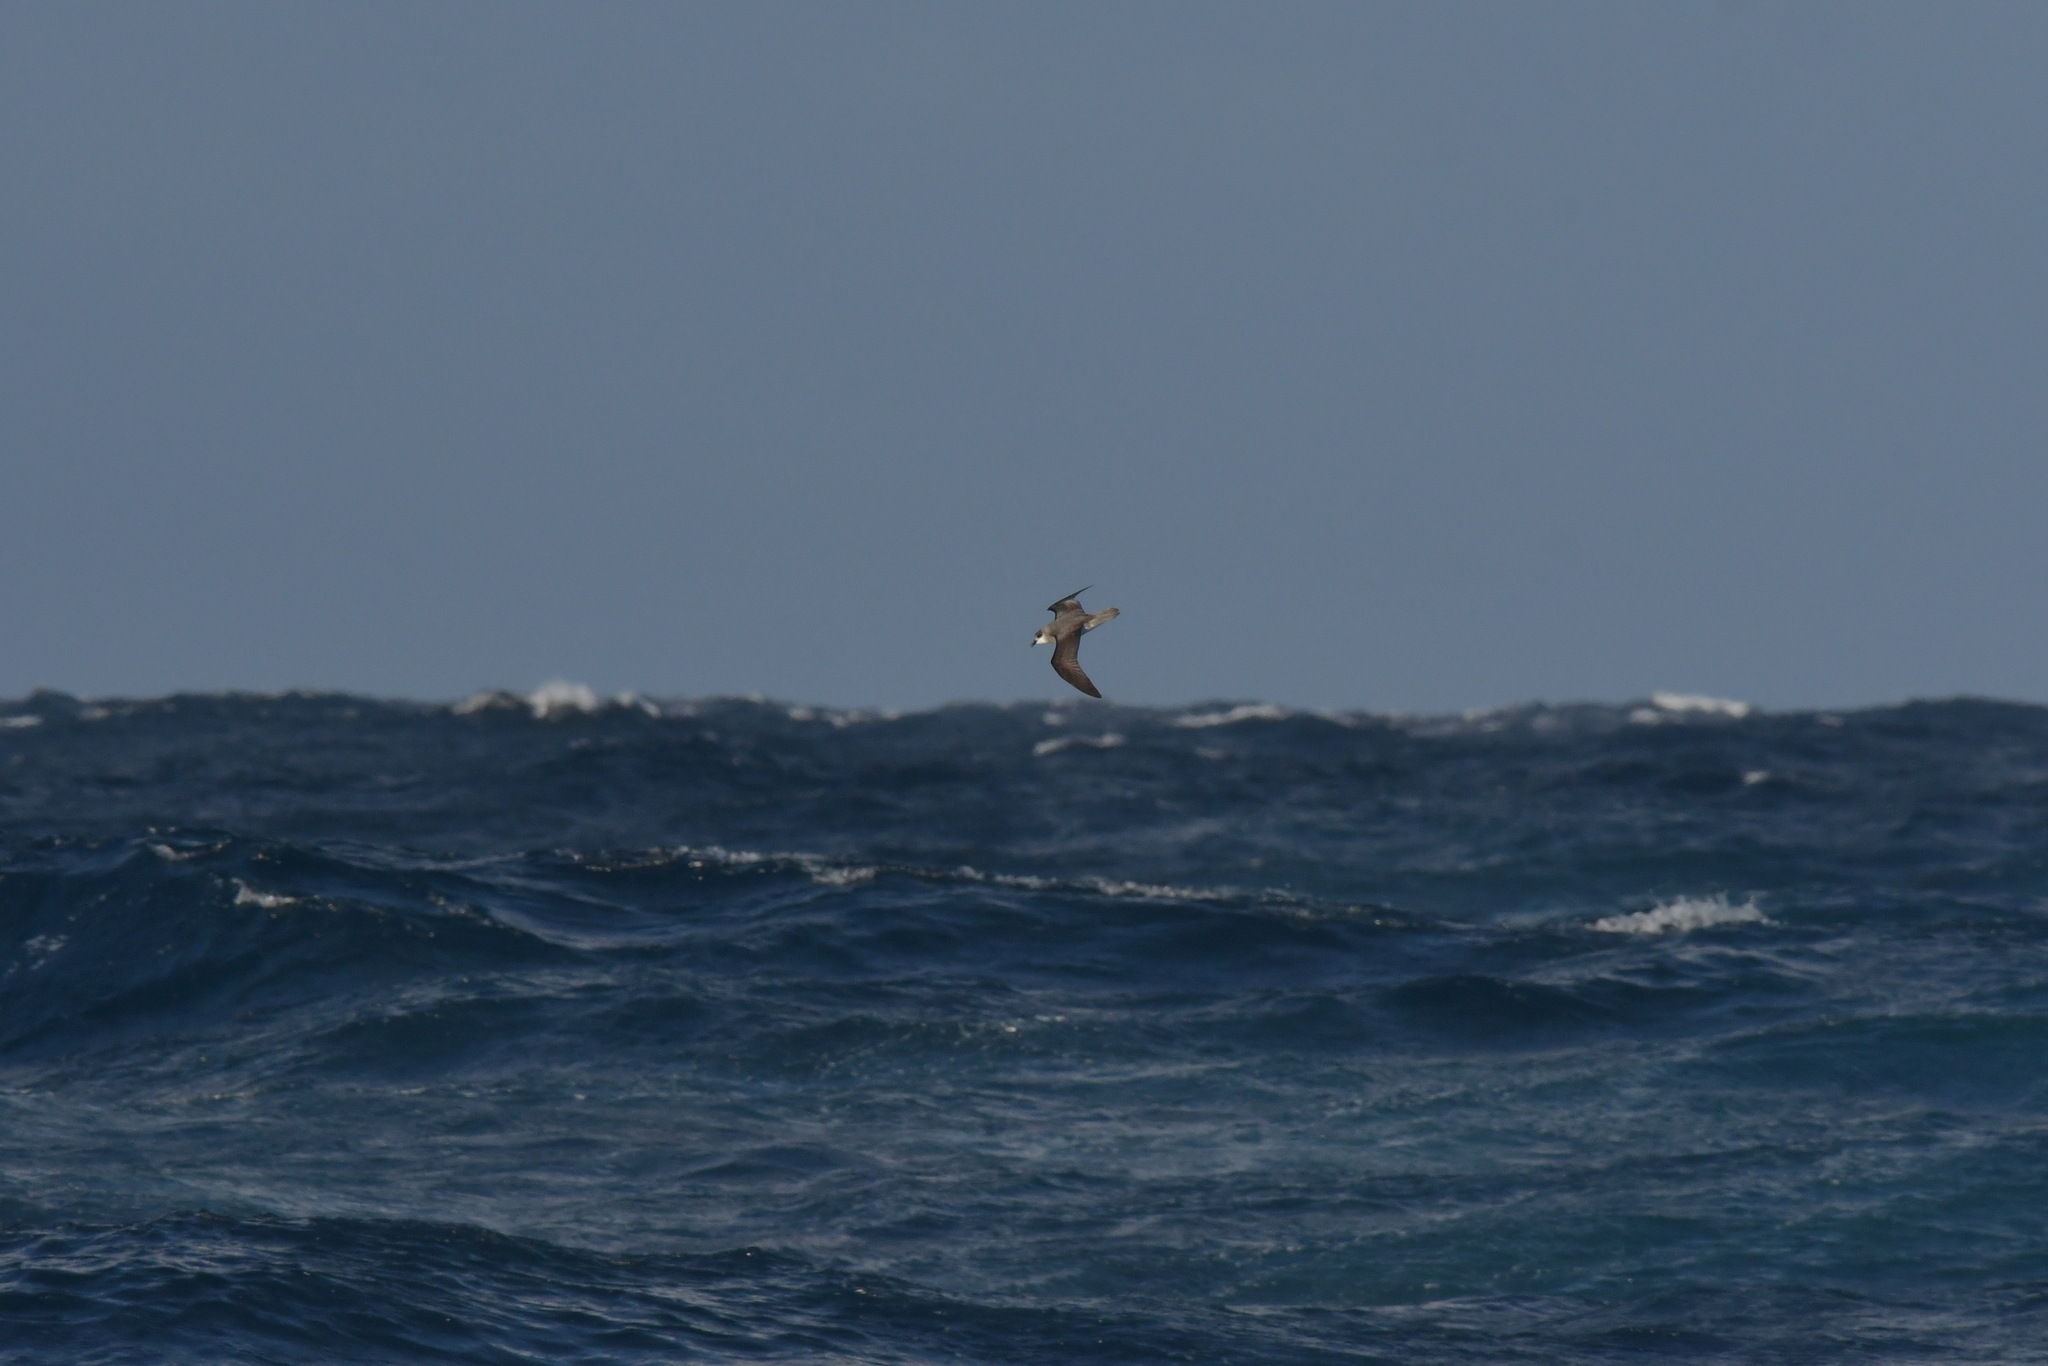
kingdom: Animalia
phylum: Chordata
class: Aves
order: Procellariiformes
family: Procellariidae
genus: Pterodroma
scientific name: Pterodroma mollis
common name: Soft-plumaged petrel
